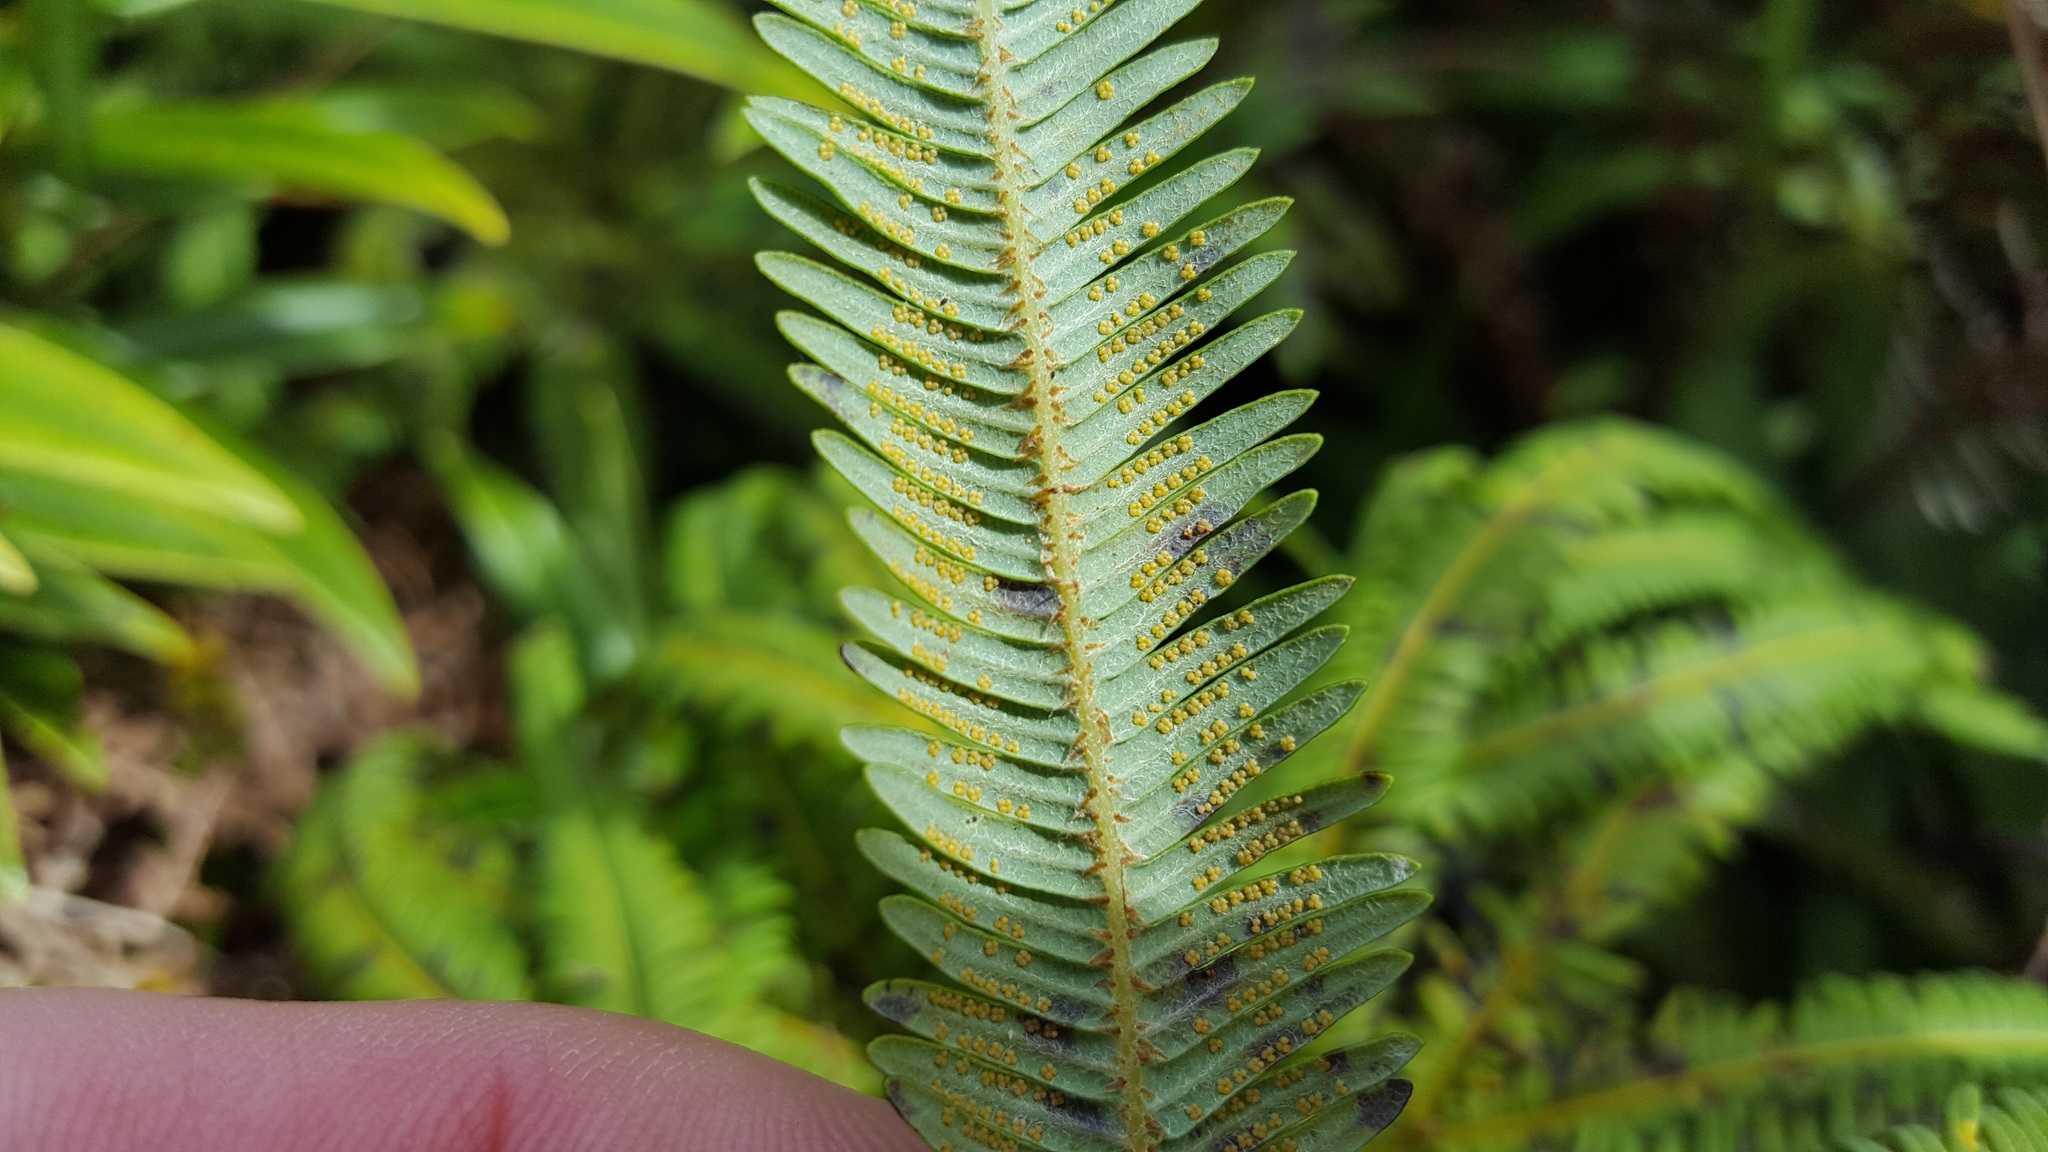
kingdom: Plantae
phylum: Tracheophyta
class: Polypodiopsida
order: Gleicheniales
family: Gleicheniaceae
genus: Sticherus
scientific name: Sticherus cunninghamii
